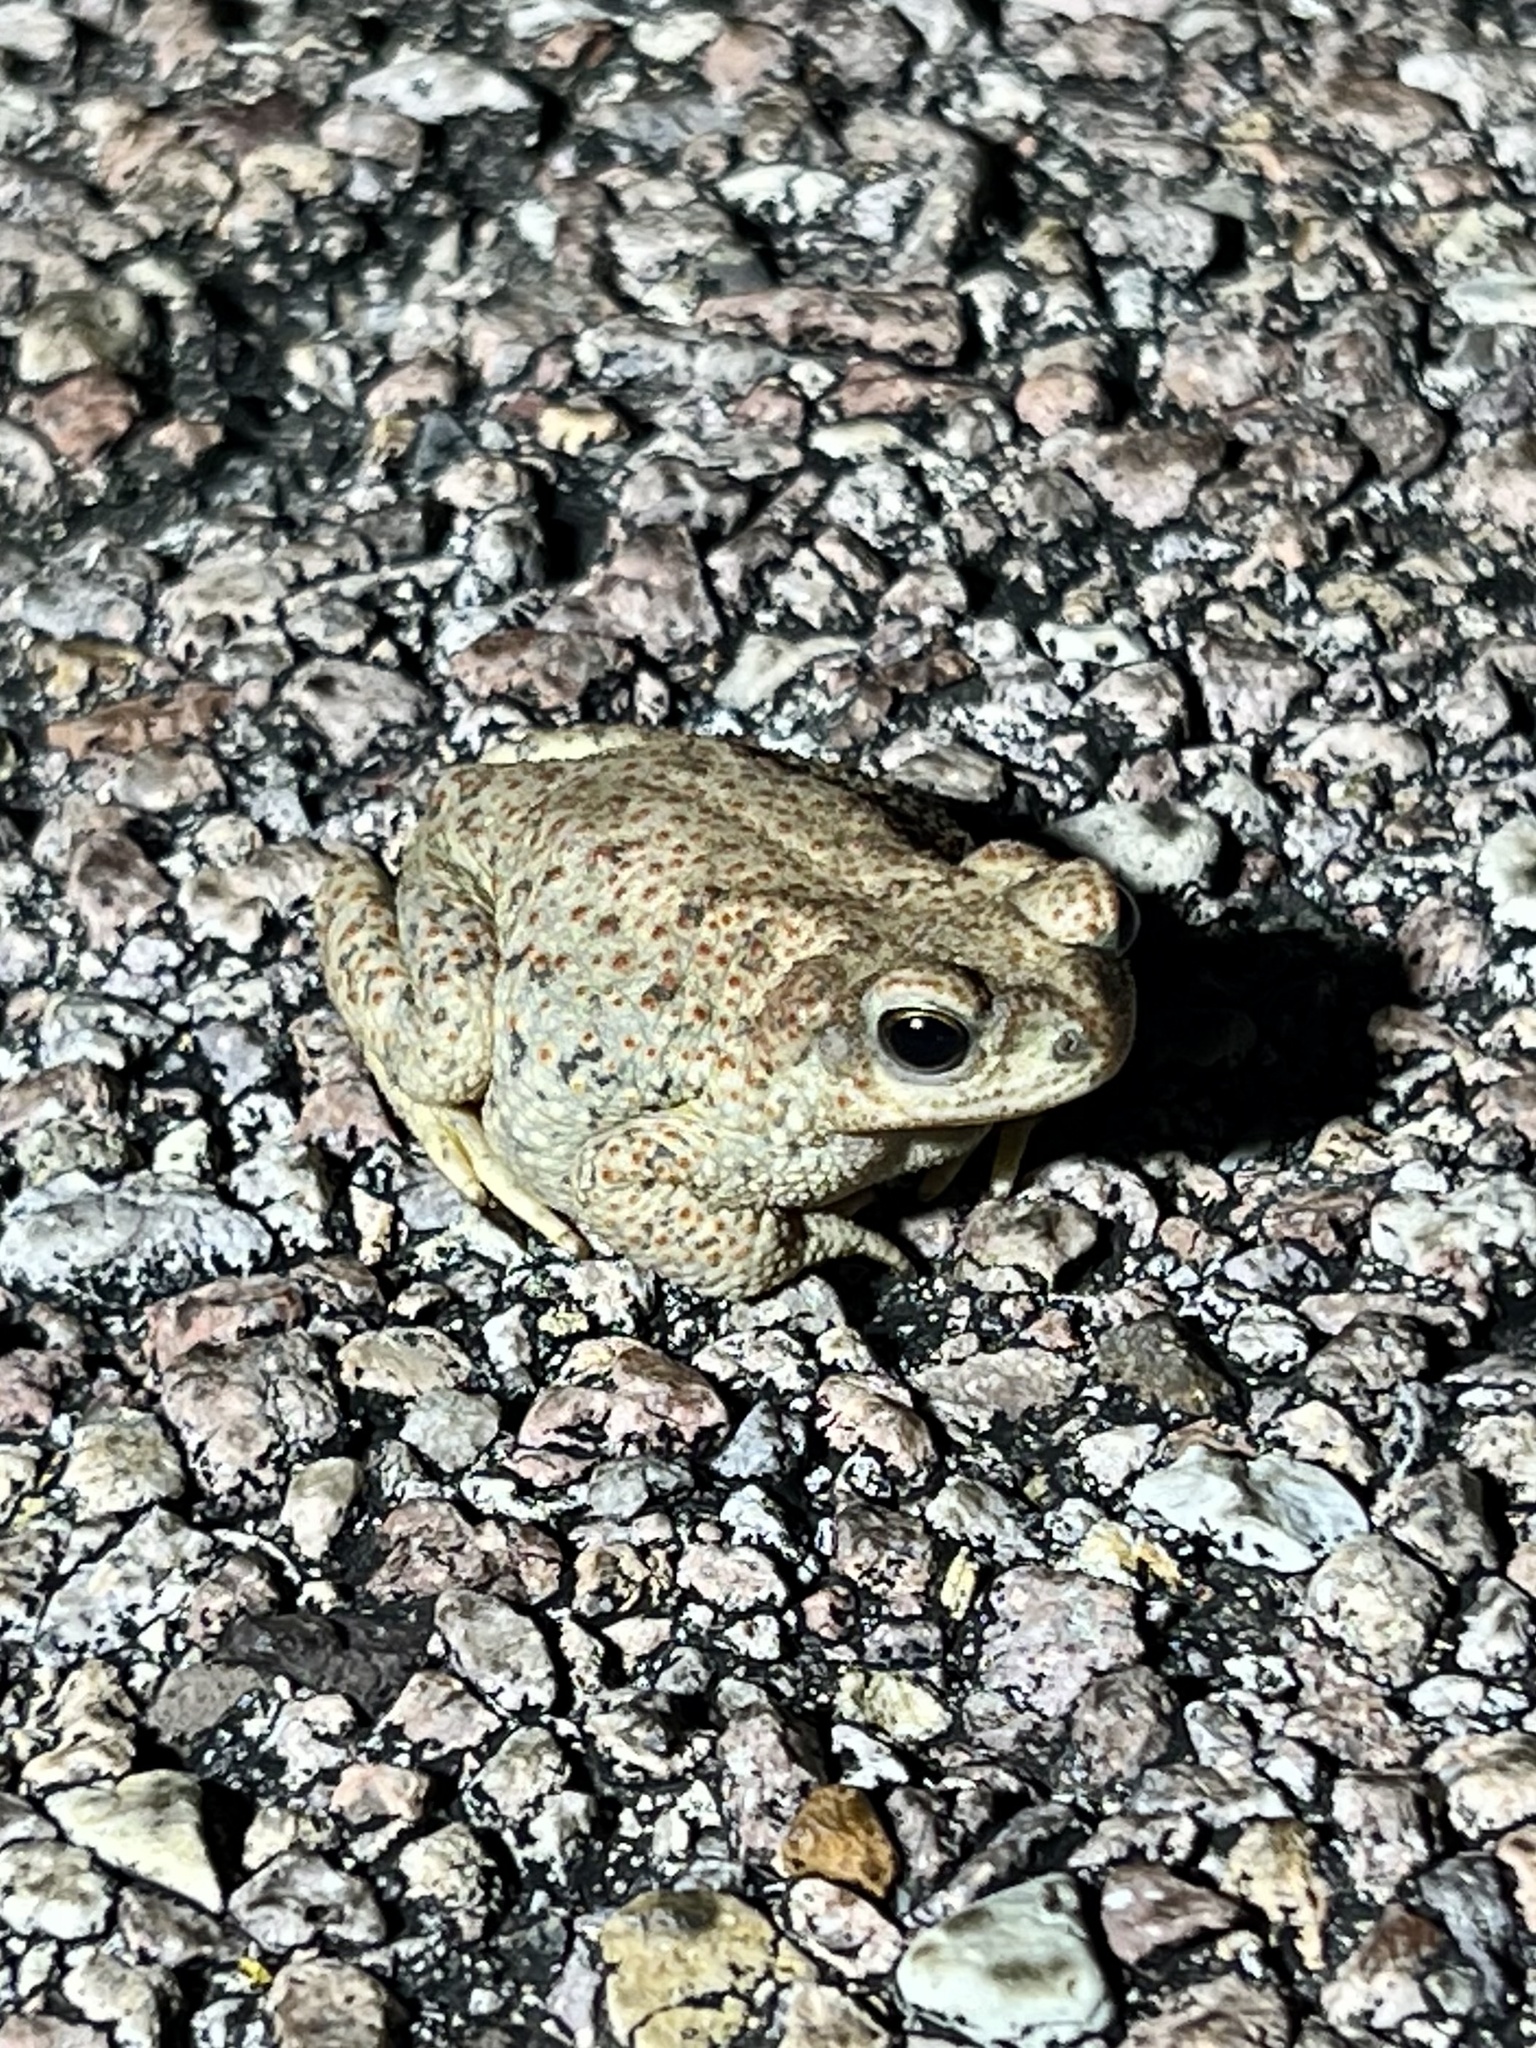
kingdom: Animalia
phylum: Chordata
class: Amphibia
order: Anura
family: Bufonidae
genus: Anaxyrus
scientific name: Anaxyrus punctatus
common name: Red-spotted toad
